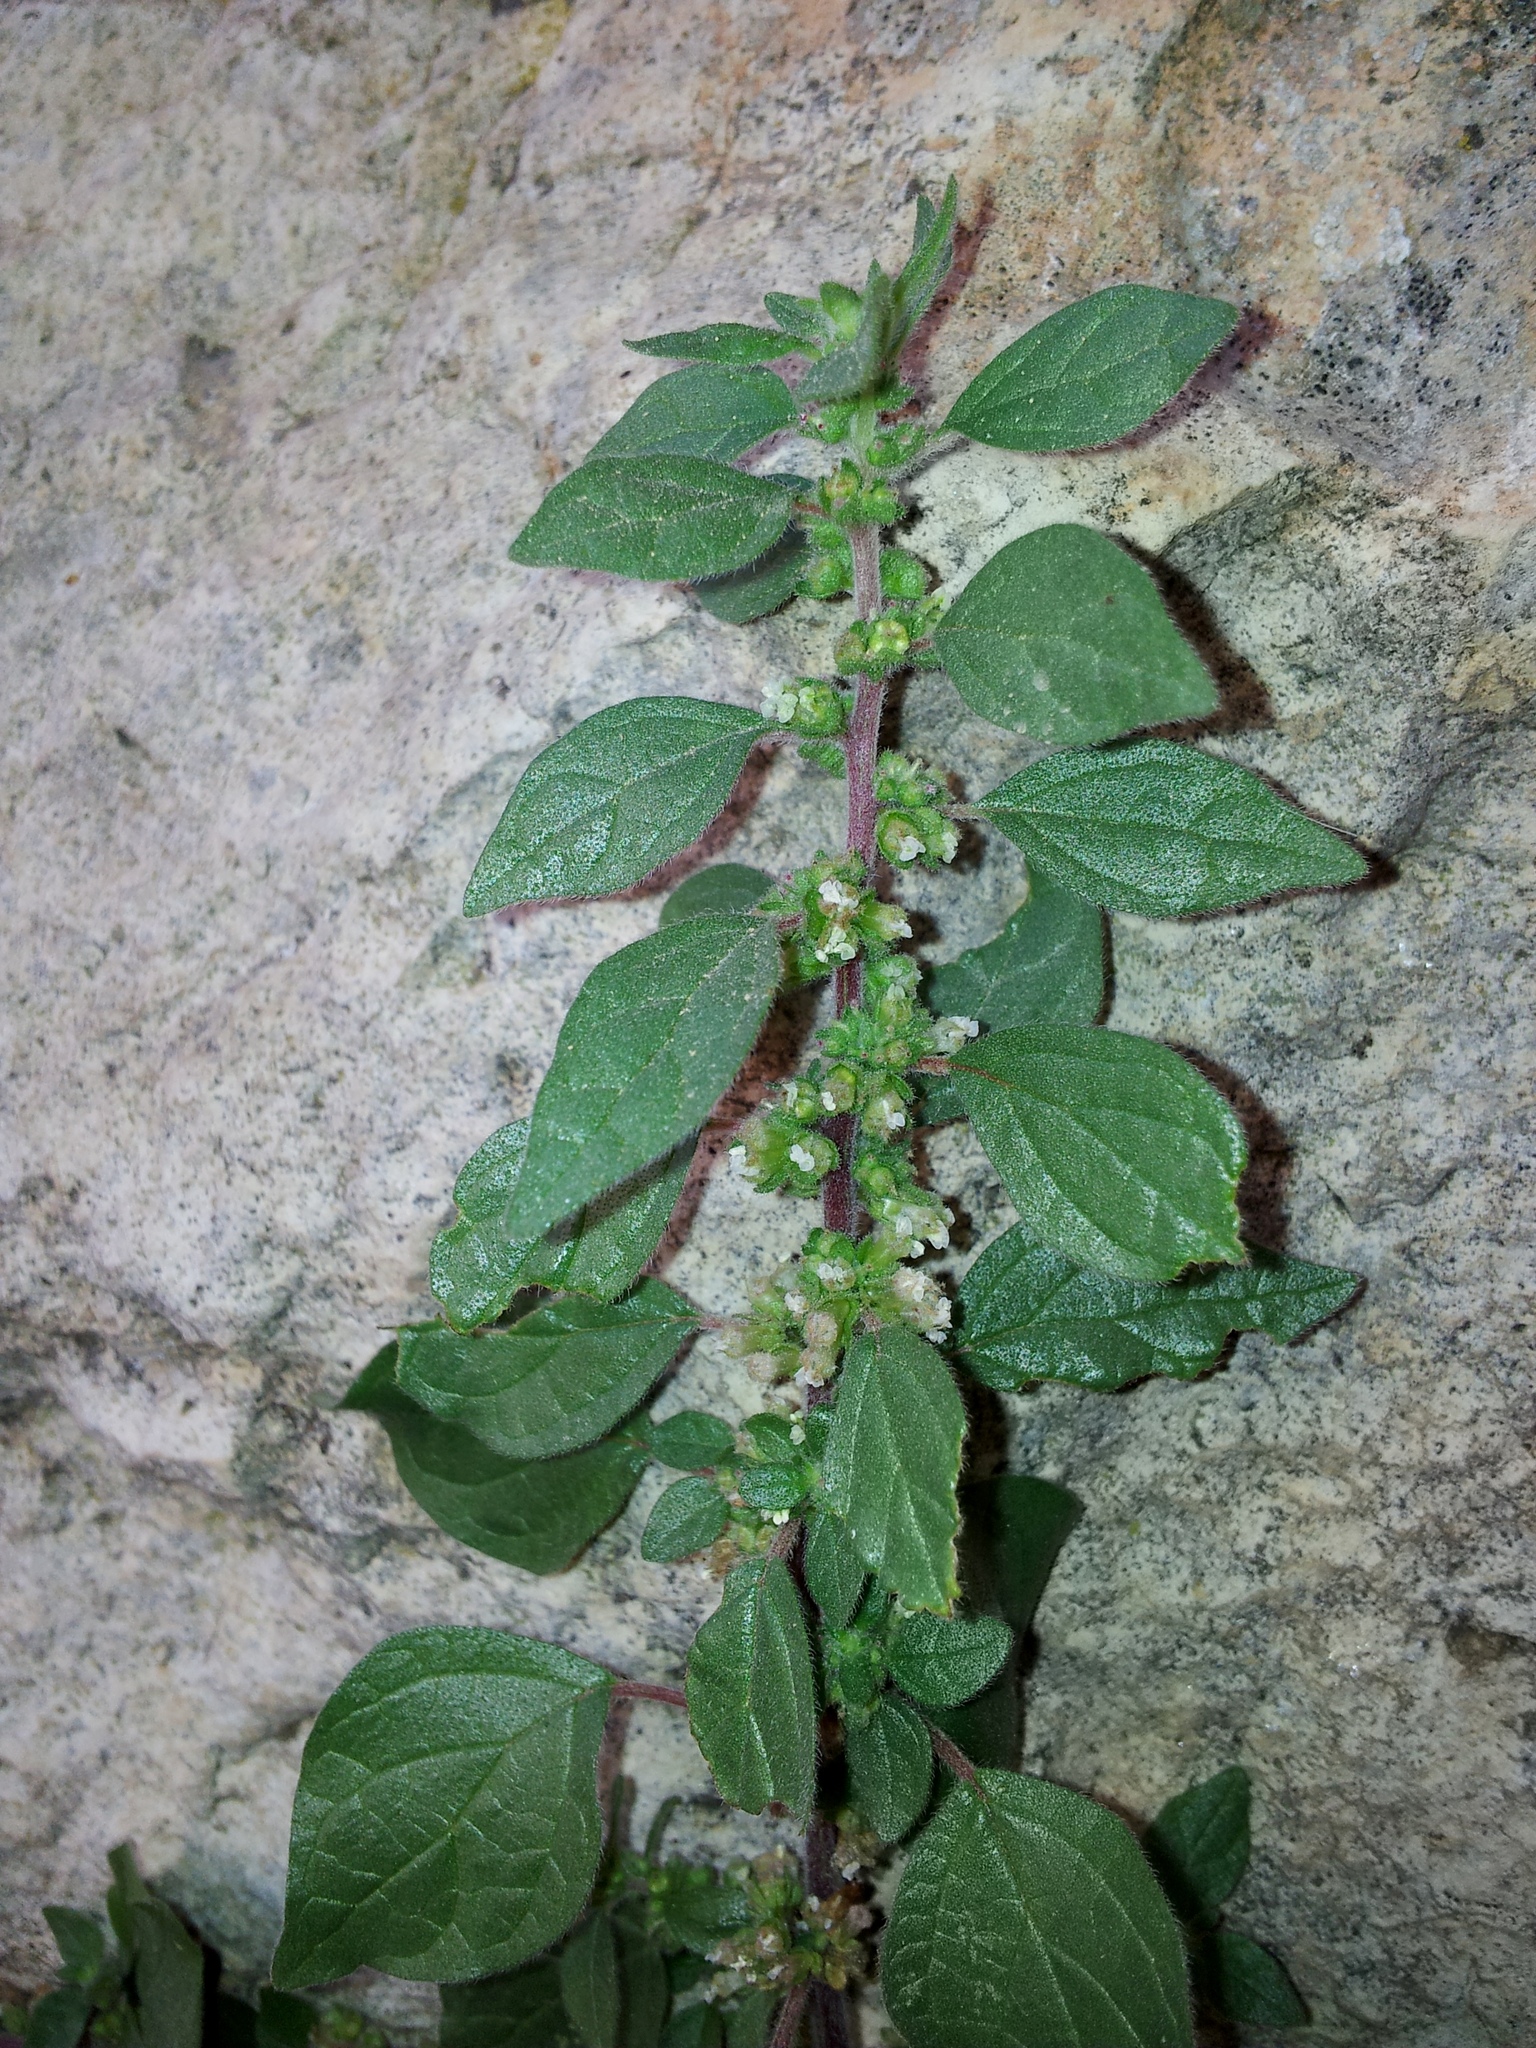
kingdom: Plantae
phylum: Tracheophyta
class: Magnoliopsida
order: Rosales
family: Urticaceae
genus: Parietaria
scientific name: Parietaria judaica
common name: Pellitory-of-the-wall
